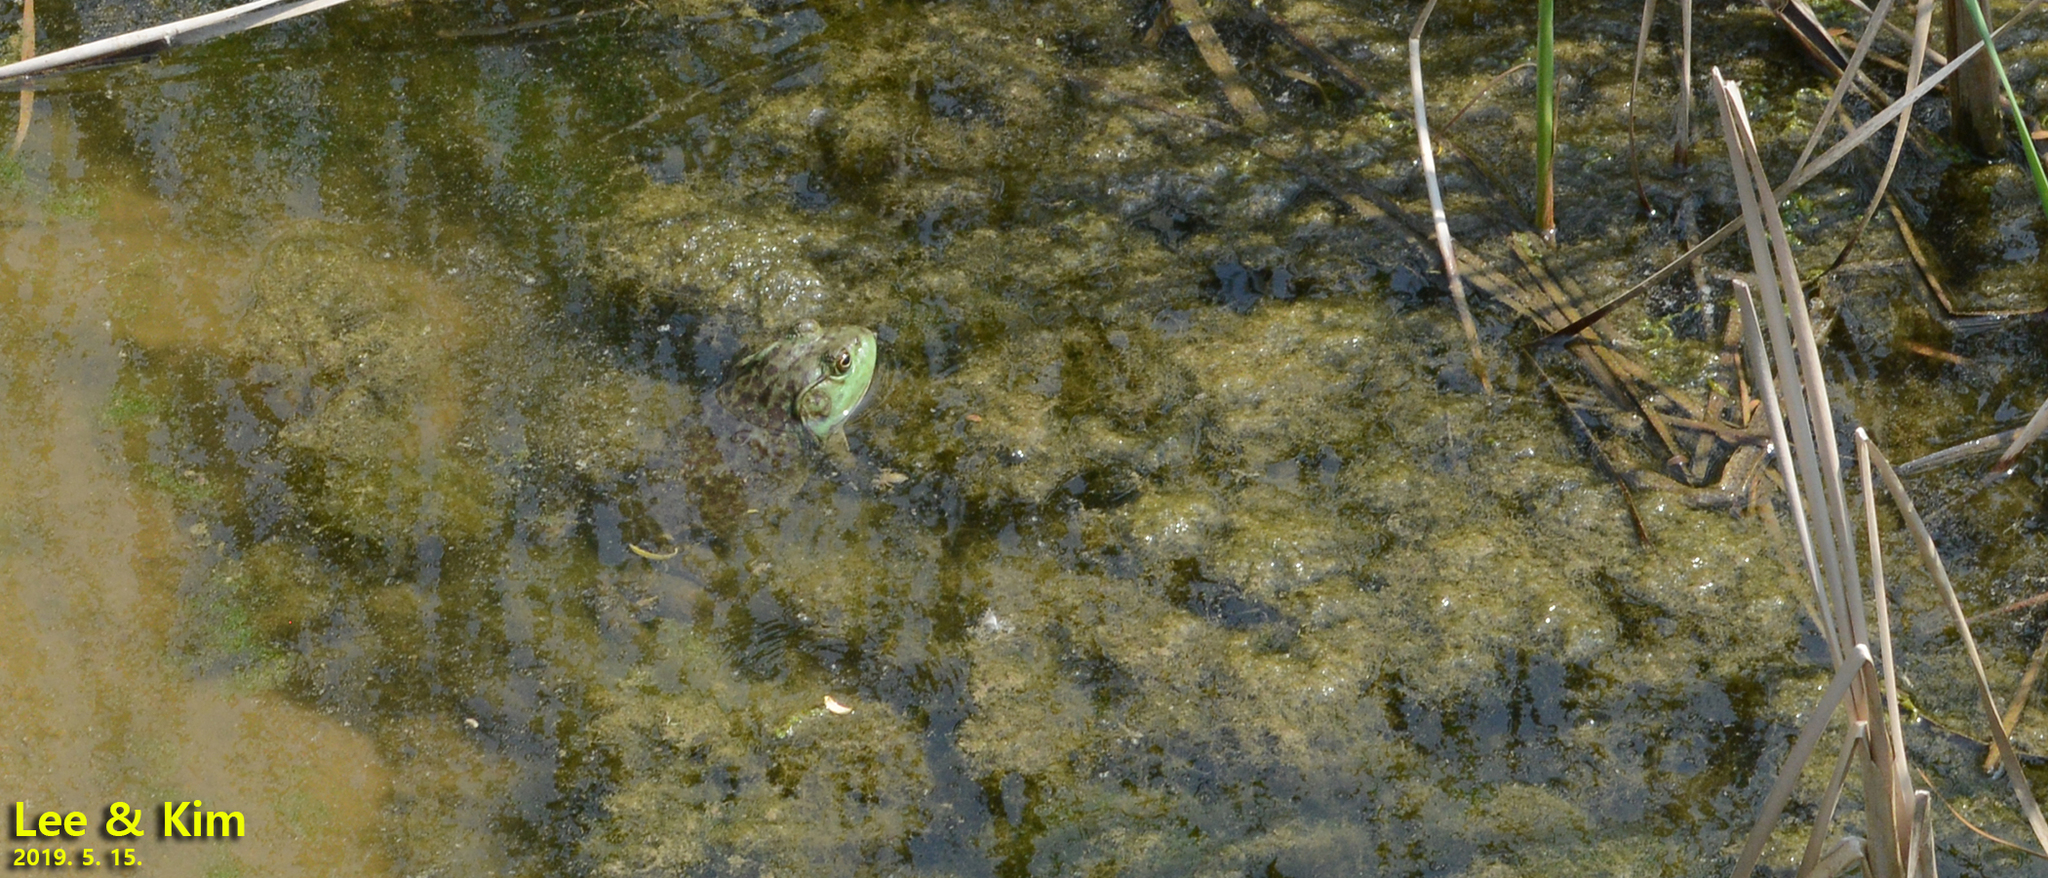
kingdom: Animalia
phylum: Chordata
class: Amphibia
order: Anura
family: Ranidae
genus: Lithobates
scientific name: Lithobates catesbeianus
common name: American bullfrog
